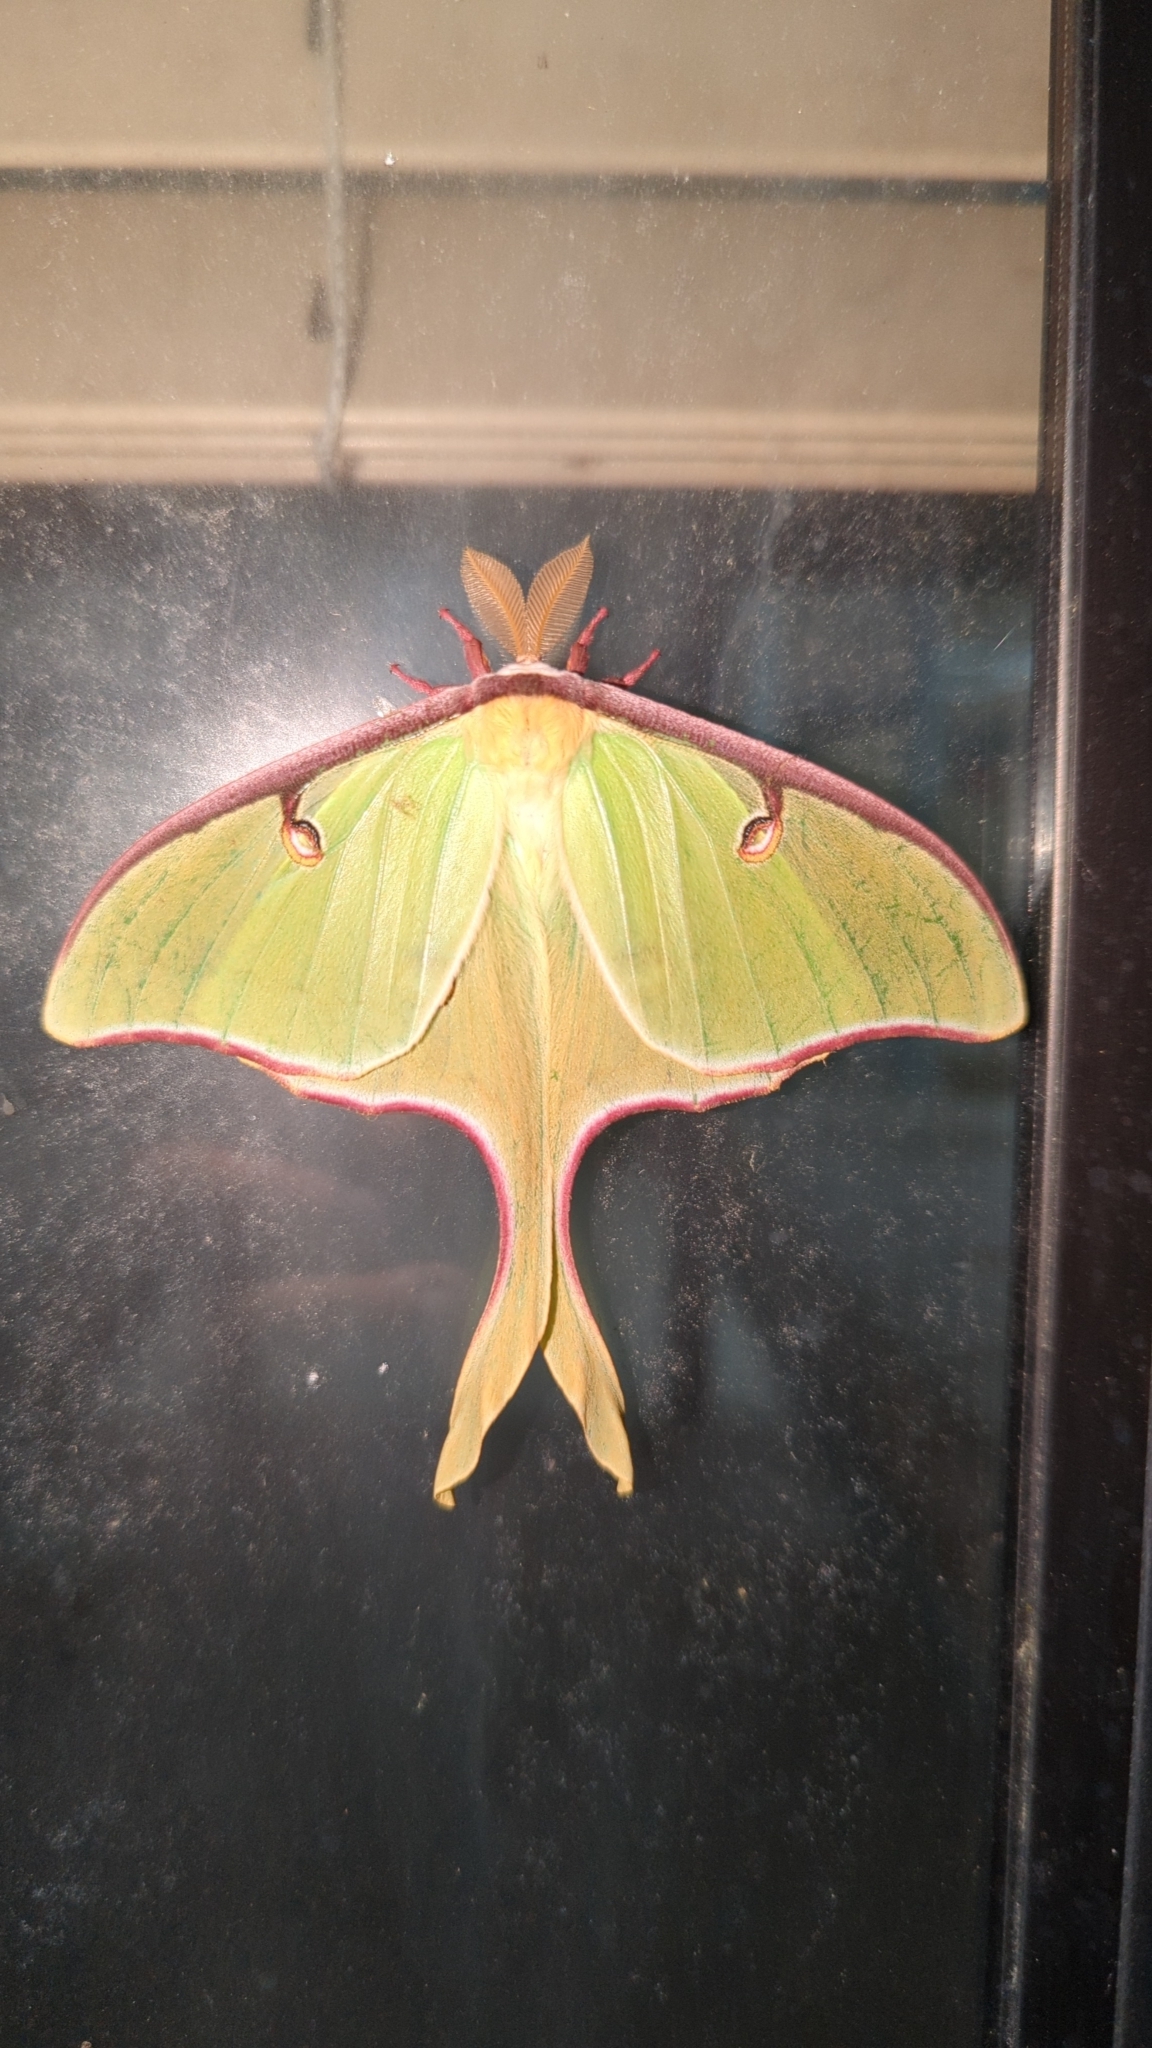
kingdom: Animalia
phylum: Arthropoda
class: Insecta
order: Lepidoptera
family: Saturniidae
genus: Actias
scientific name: Actias luna
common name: Luna moth
